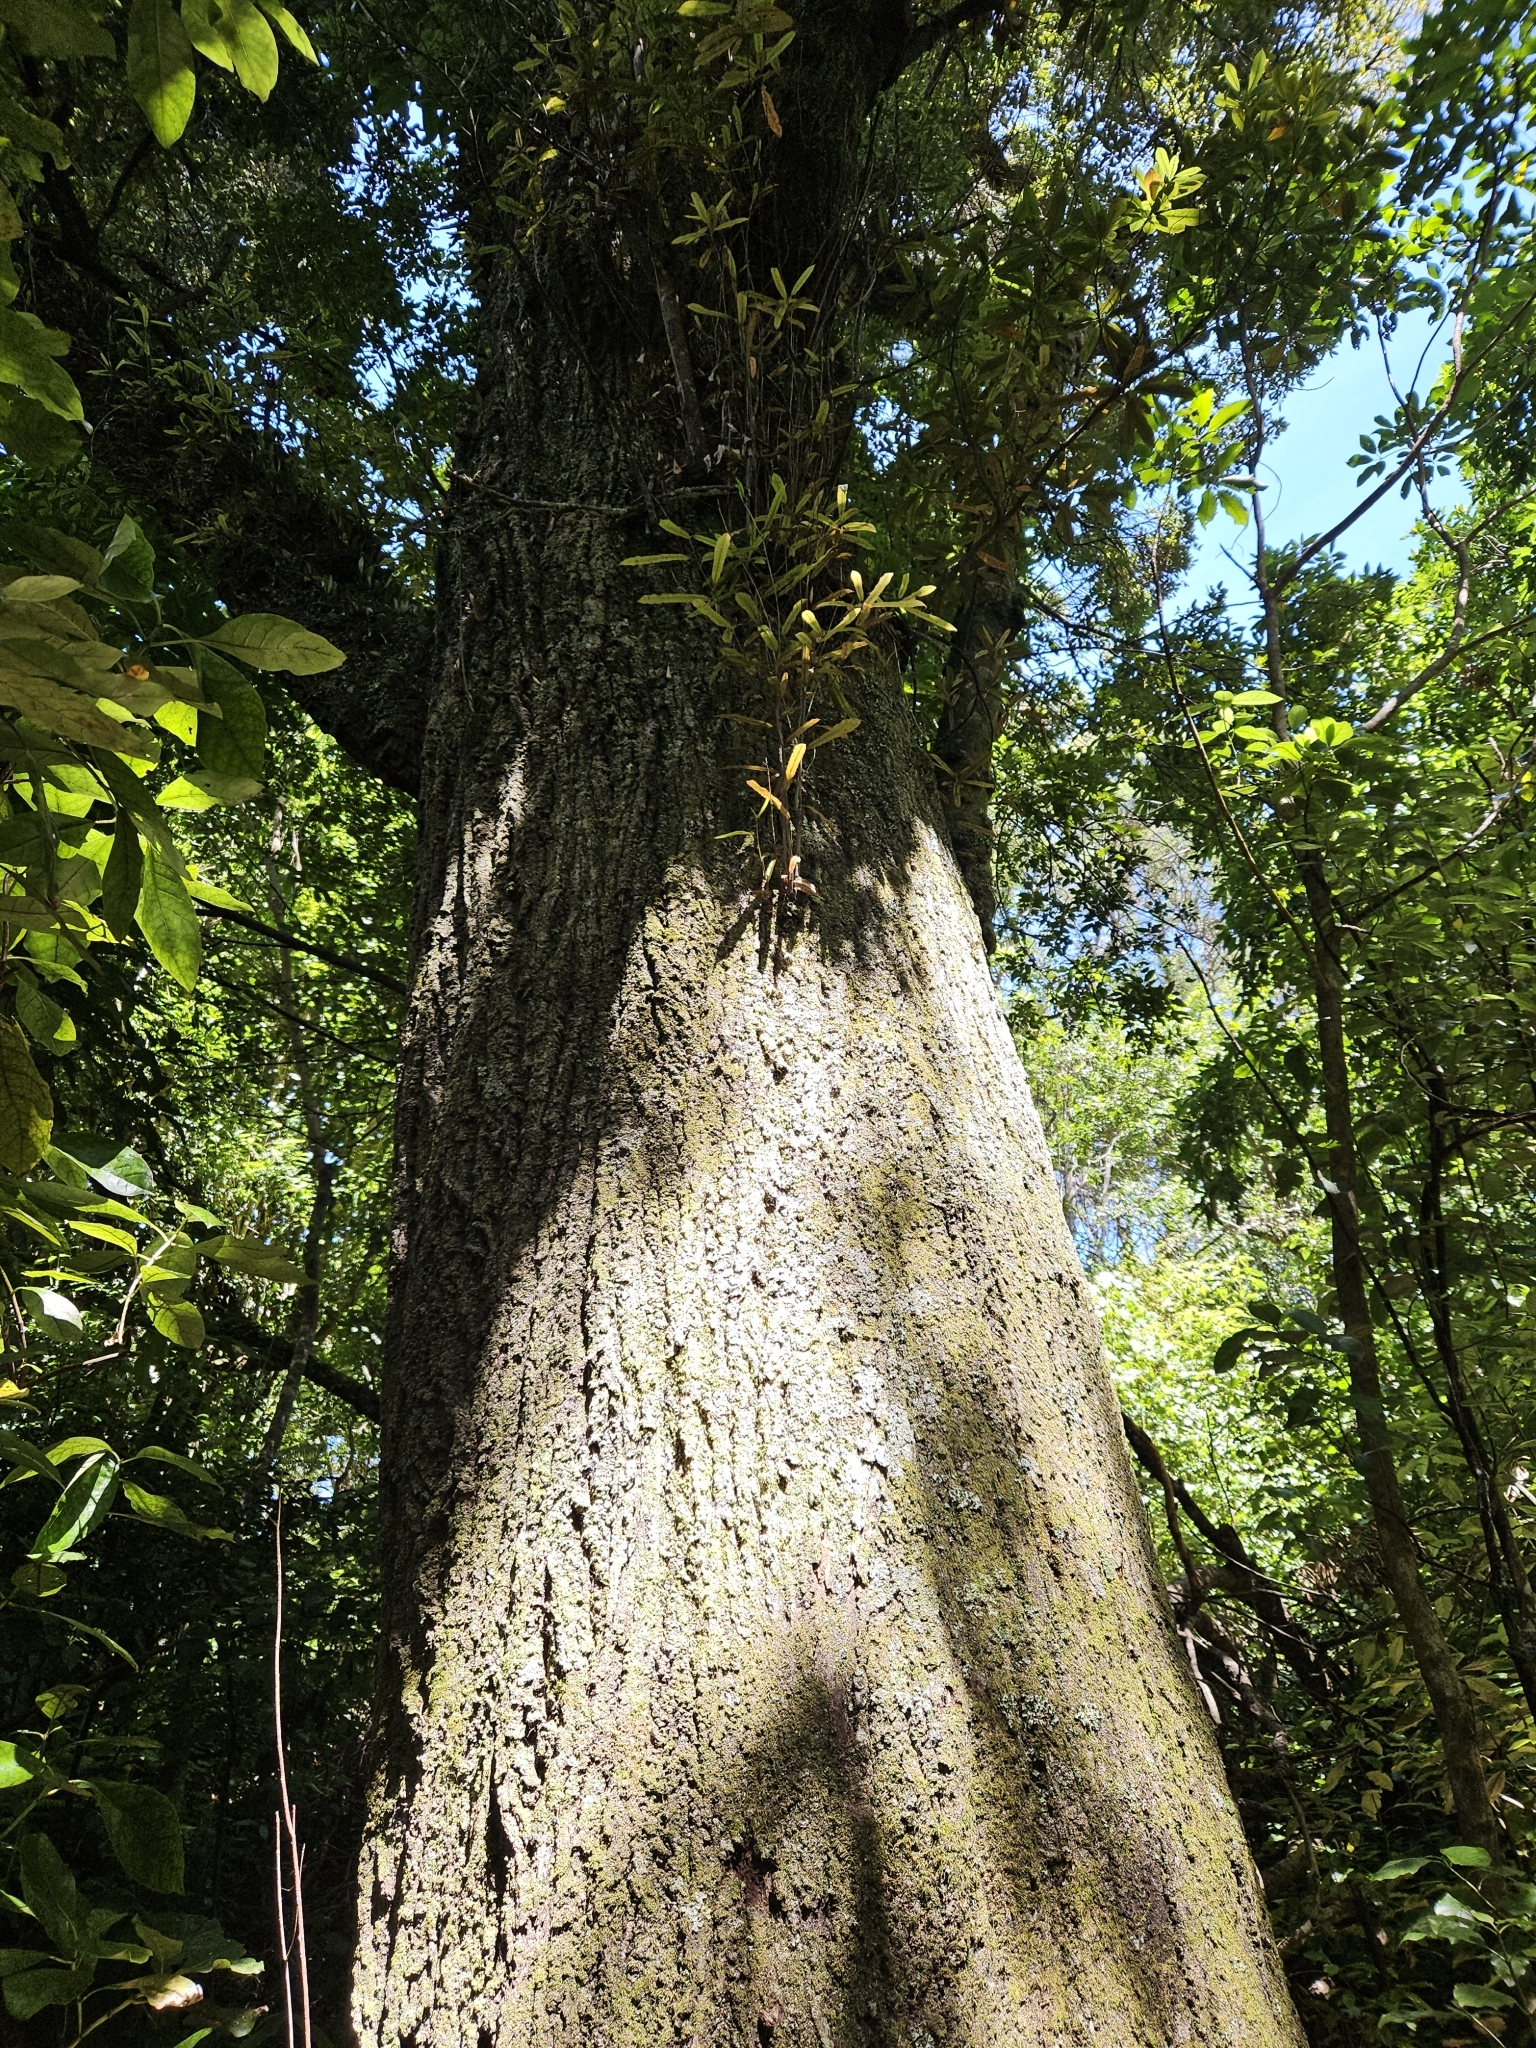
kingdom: Plantae
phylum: Tracheophyta
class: Magnoliopsida
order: Oxalidales
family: Elaeocarpaceae
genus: Elaeocarpus
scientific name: Elaeocarpus dentatus
